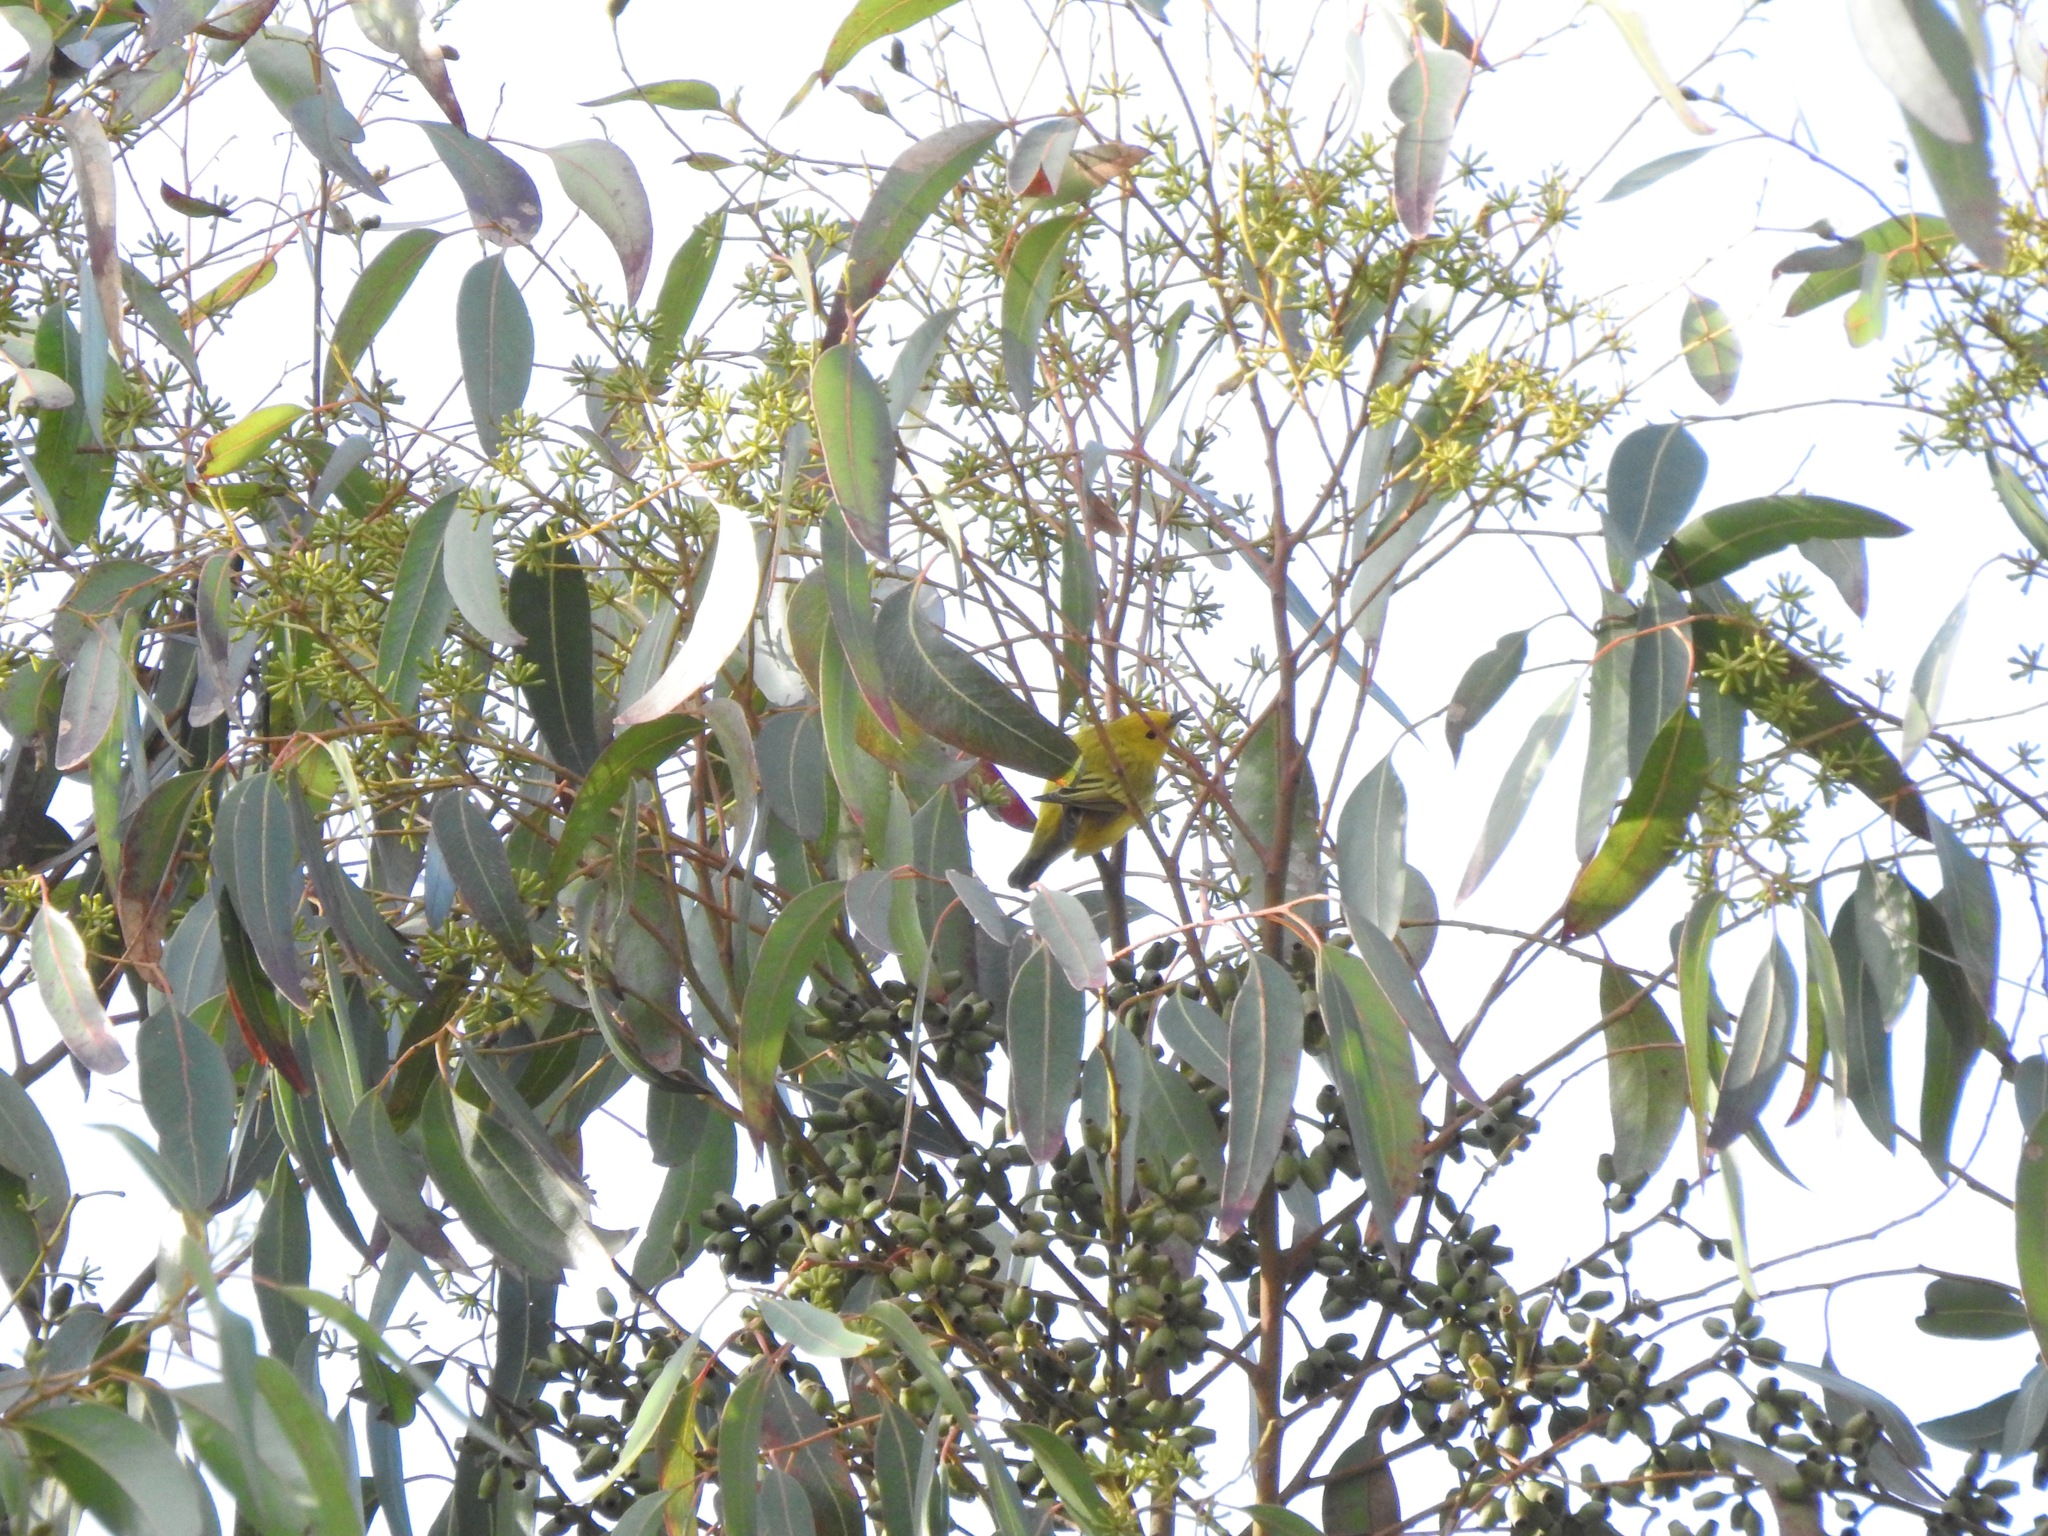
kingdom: Animalia
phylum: Chordata
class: Aves
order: Passeriformes
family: Parulidae
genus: Setophaga
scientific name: Setophaga petechia
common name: Yellow warbler
